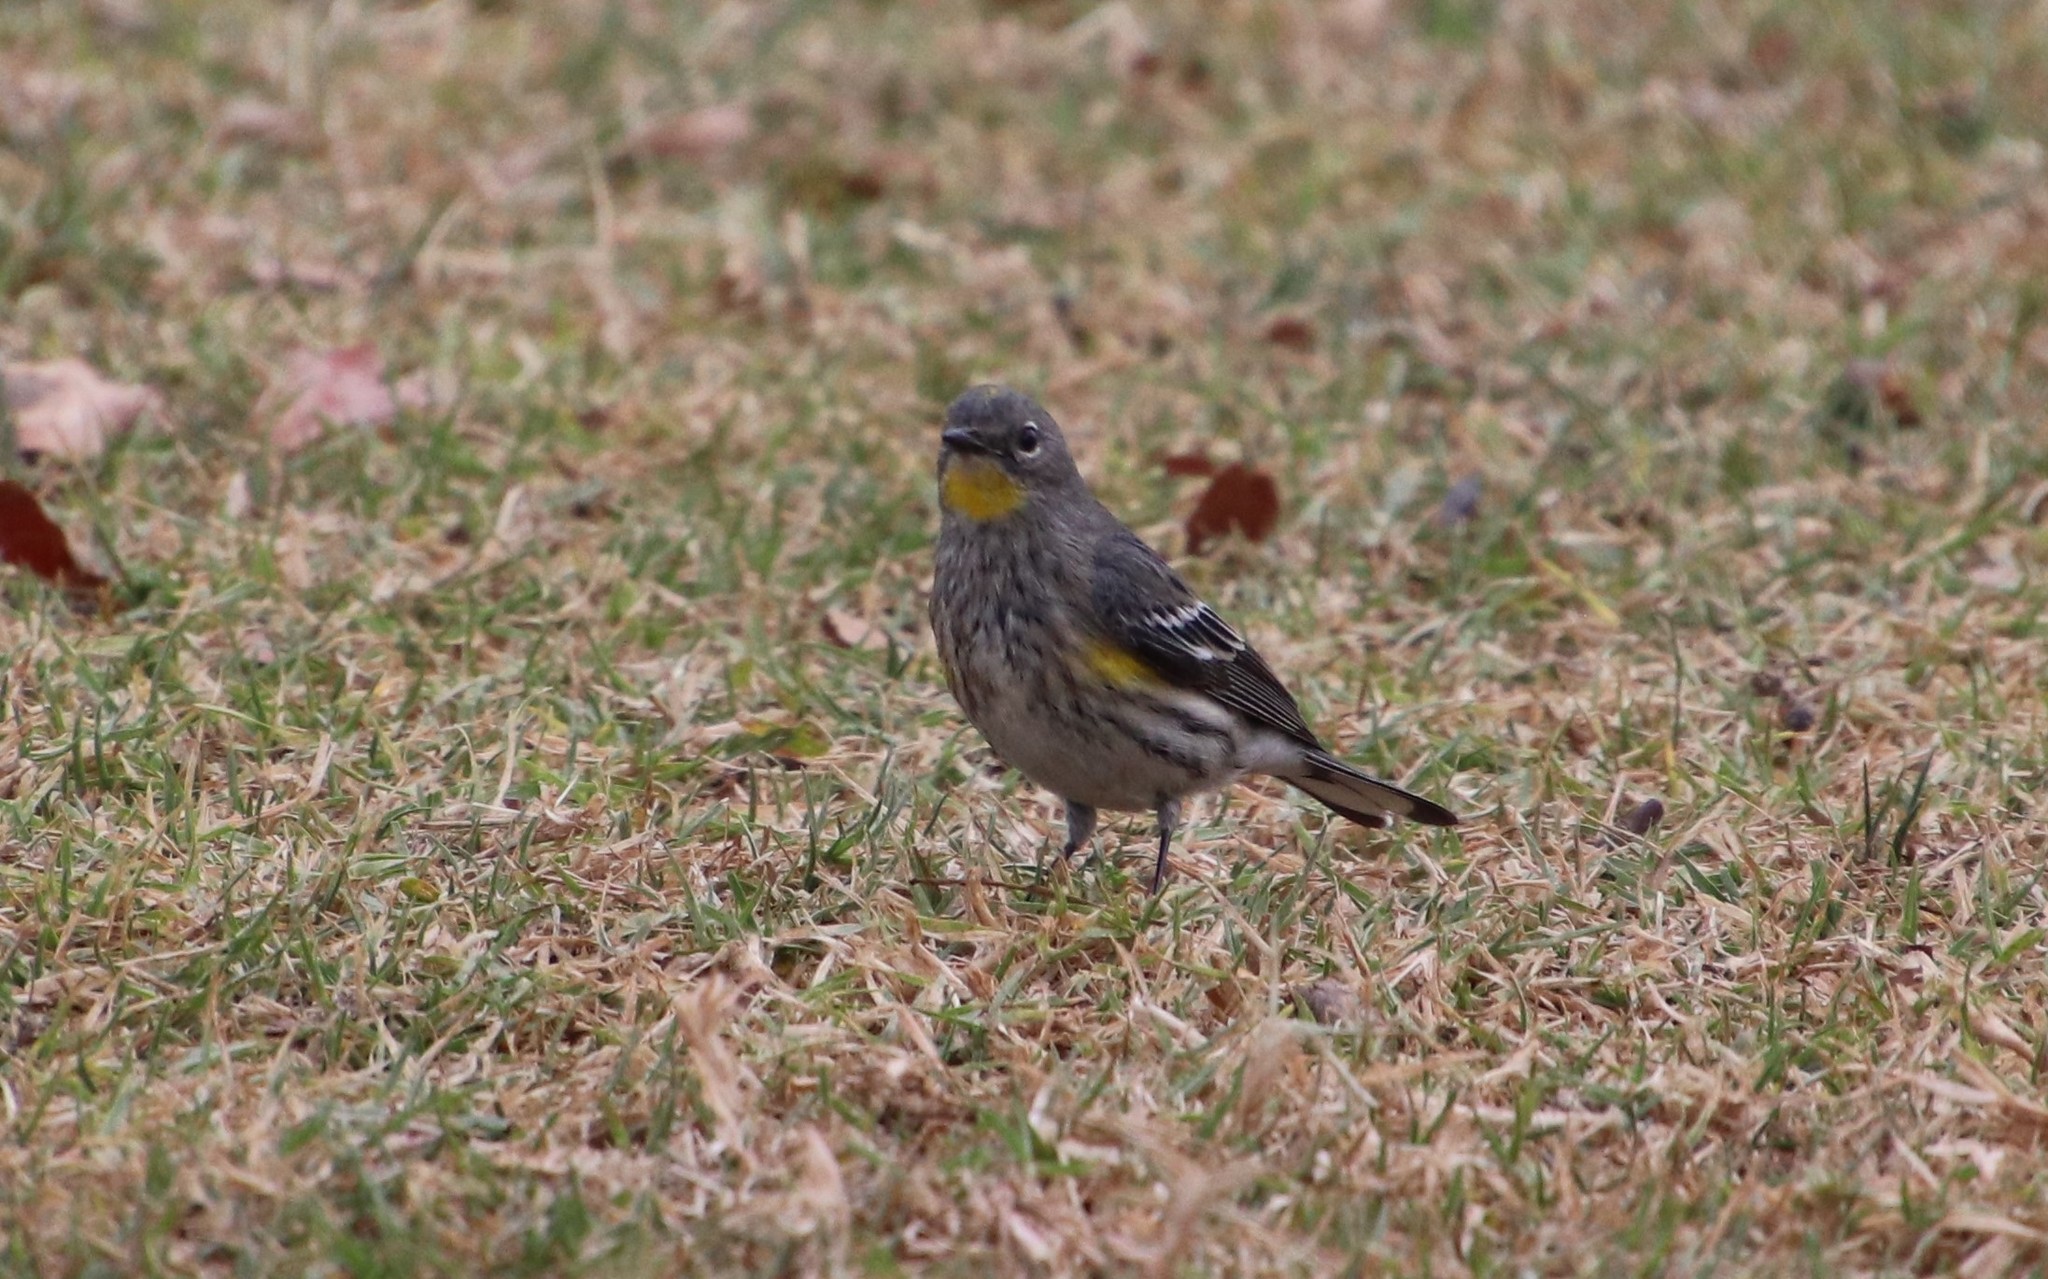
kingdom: Animalia
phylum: Chordata
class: Aves
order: Passeriformes
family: Parulidae
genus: Setophaga
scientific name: Setophaga auduboni
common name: Audubon's warbler
